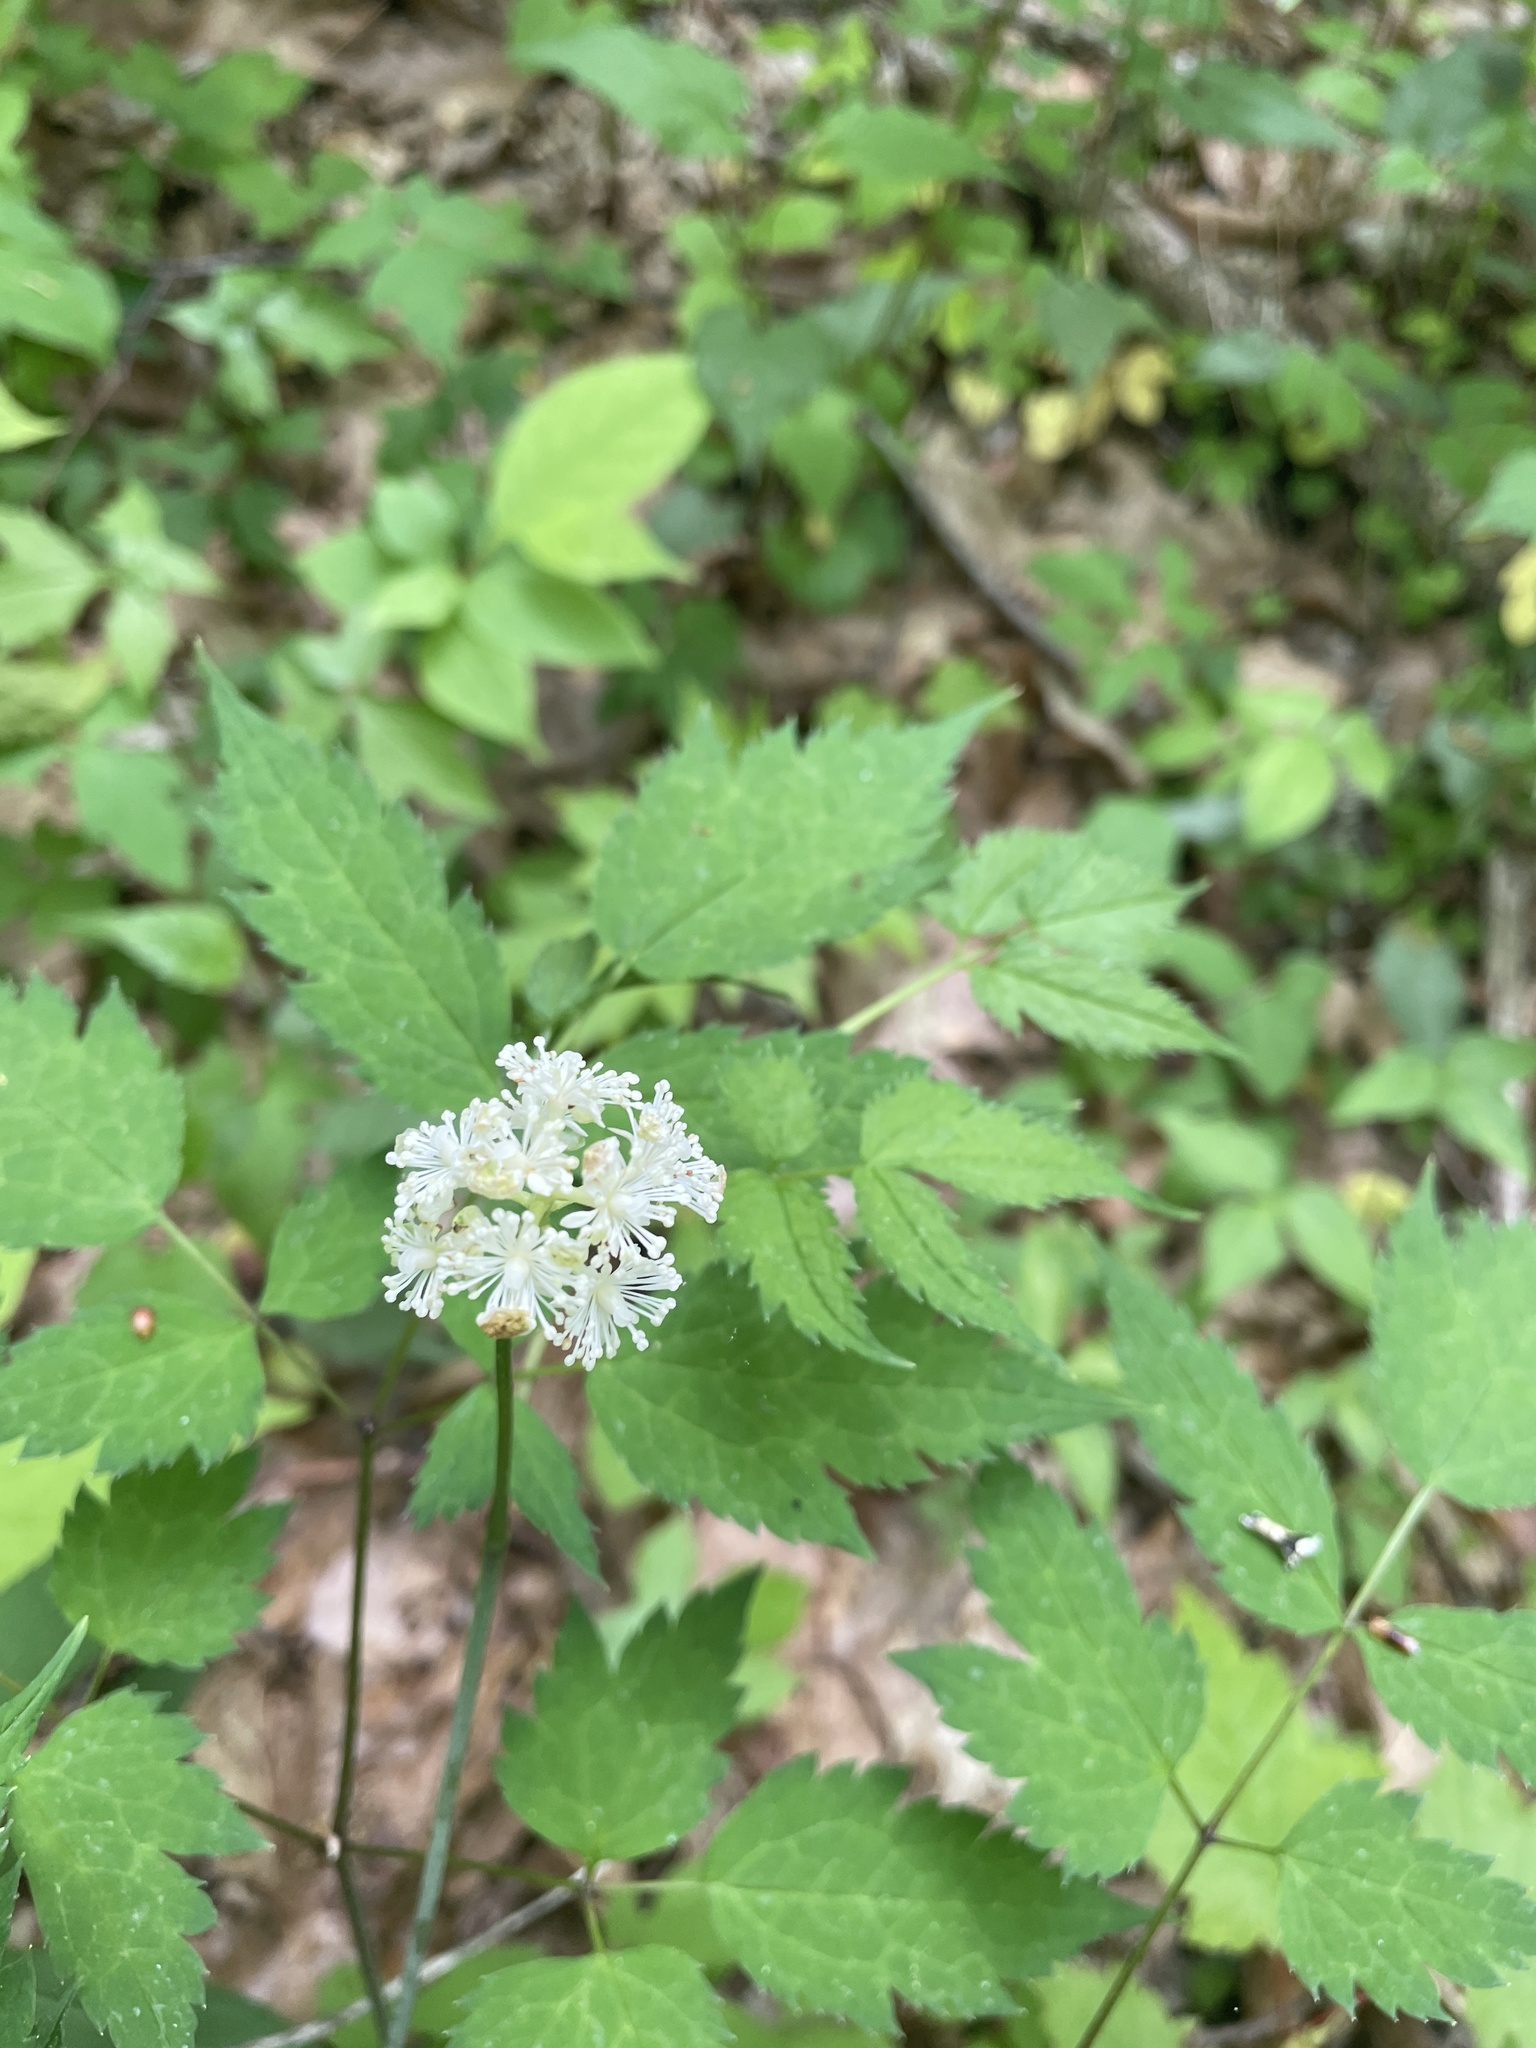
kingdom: Plantae
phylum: Tracheophyta
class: Magnoliopsida
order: Ranunculales
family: Ranunculaceae
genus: Actaea
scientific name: Actaea pachypoda
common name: Doll's-eyes
